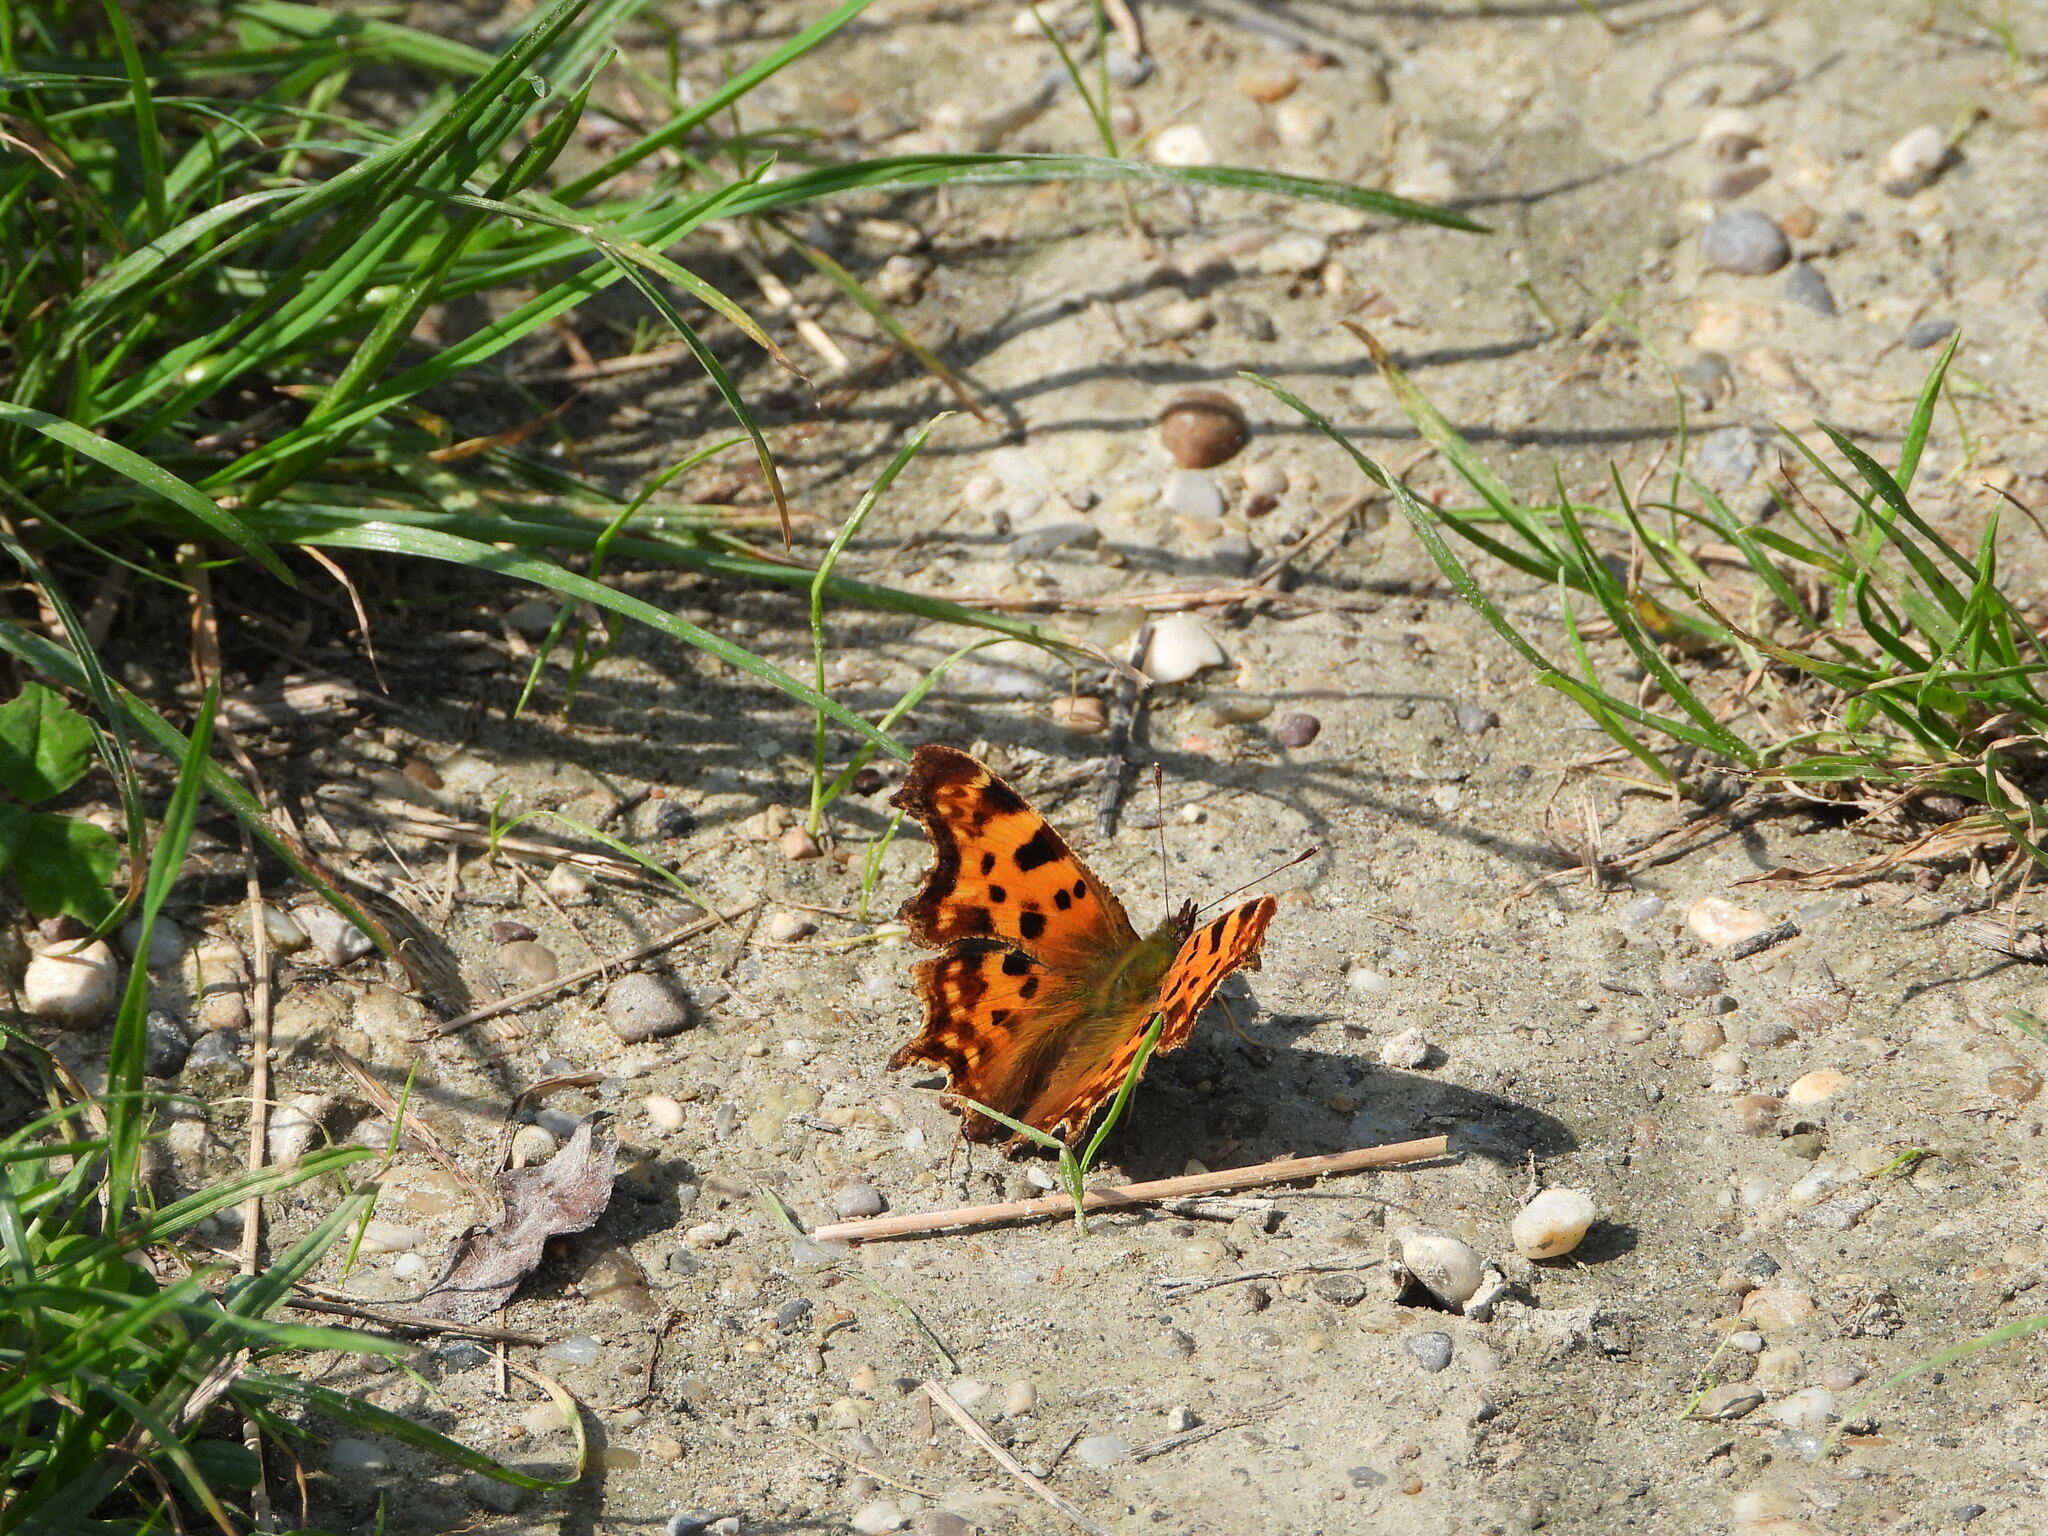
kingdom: Animalia
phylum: Arthropoda
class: Insecta
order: Lepidoptera
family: Nymphalidae
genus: Polygonia
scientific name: Polygonia c-album
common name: Comma
